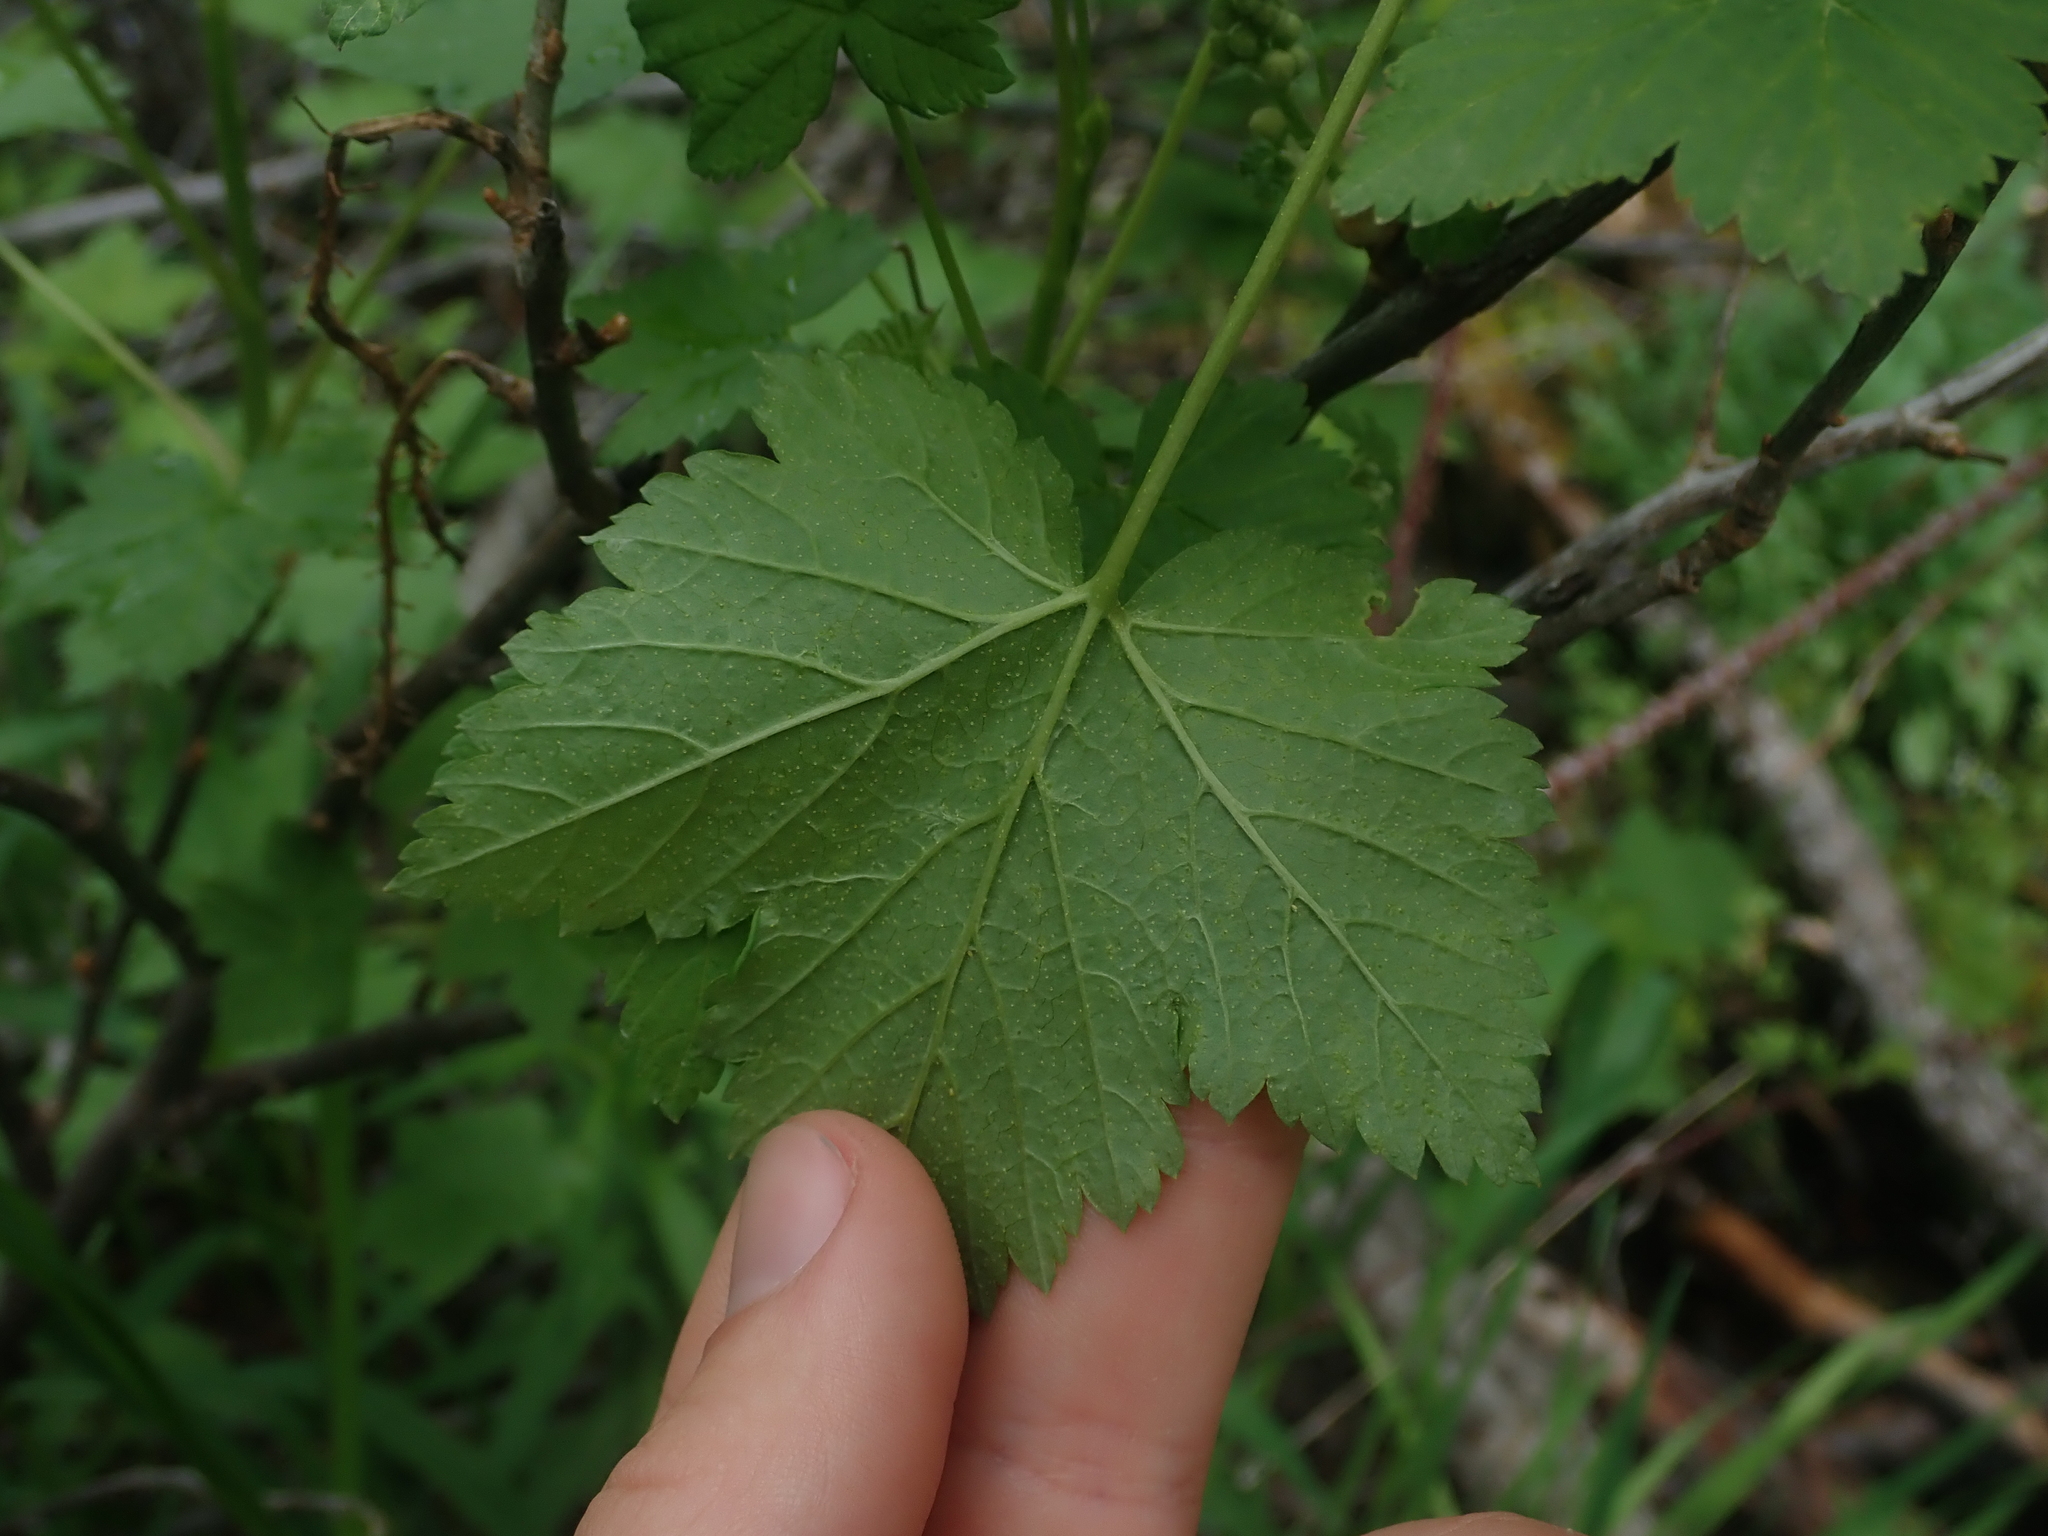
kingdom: Plantae
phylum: Tracheophyta
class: Magnoliopsida
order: Saxifragales
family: Grossulariaceae
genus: Ribes
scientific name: Ribes hudsonianum
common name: Northern black currant
